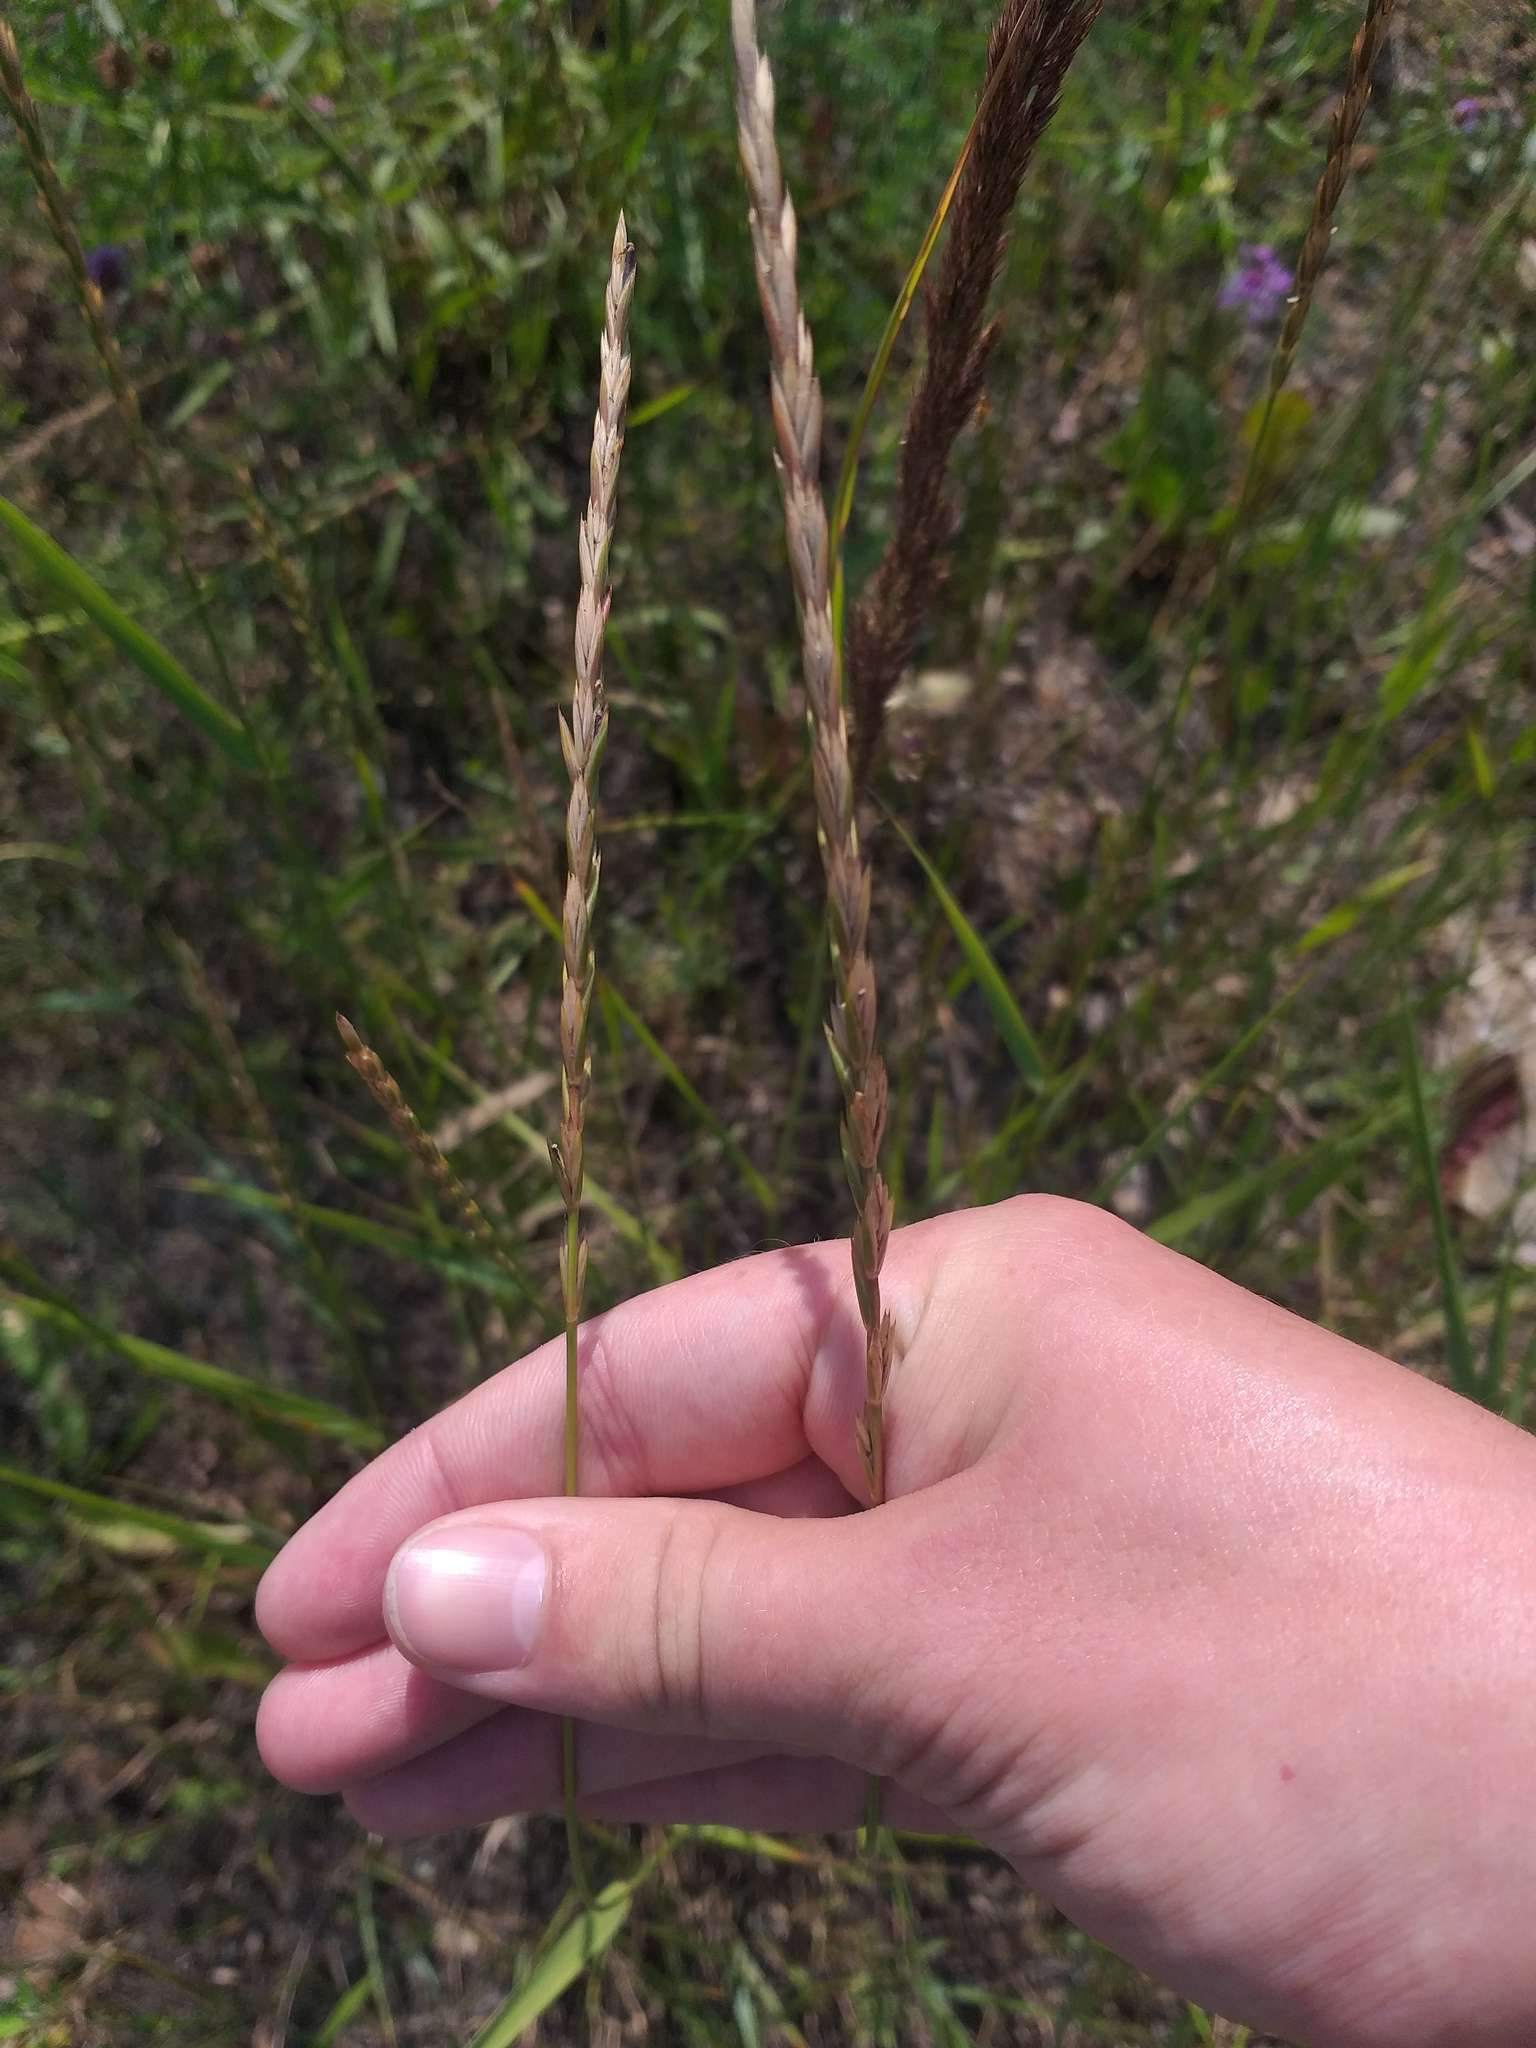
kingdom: Plantae
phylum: Tracheophyta
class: Liliopsida
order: Poales
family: Poaceae
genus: Elymus
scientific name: Elymus repens
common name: Quackgrass
